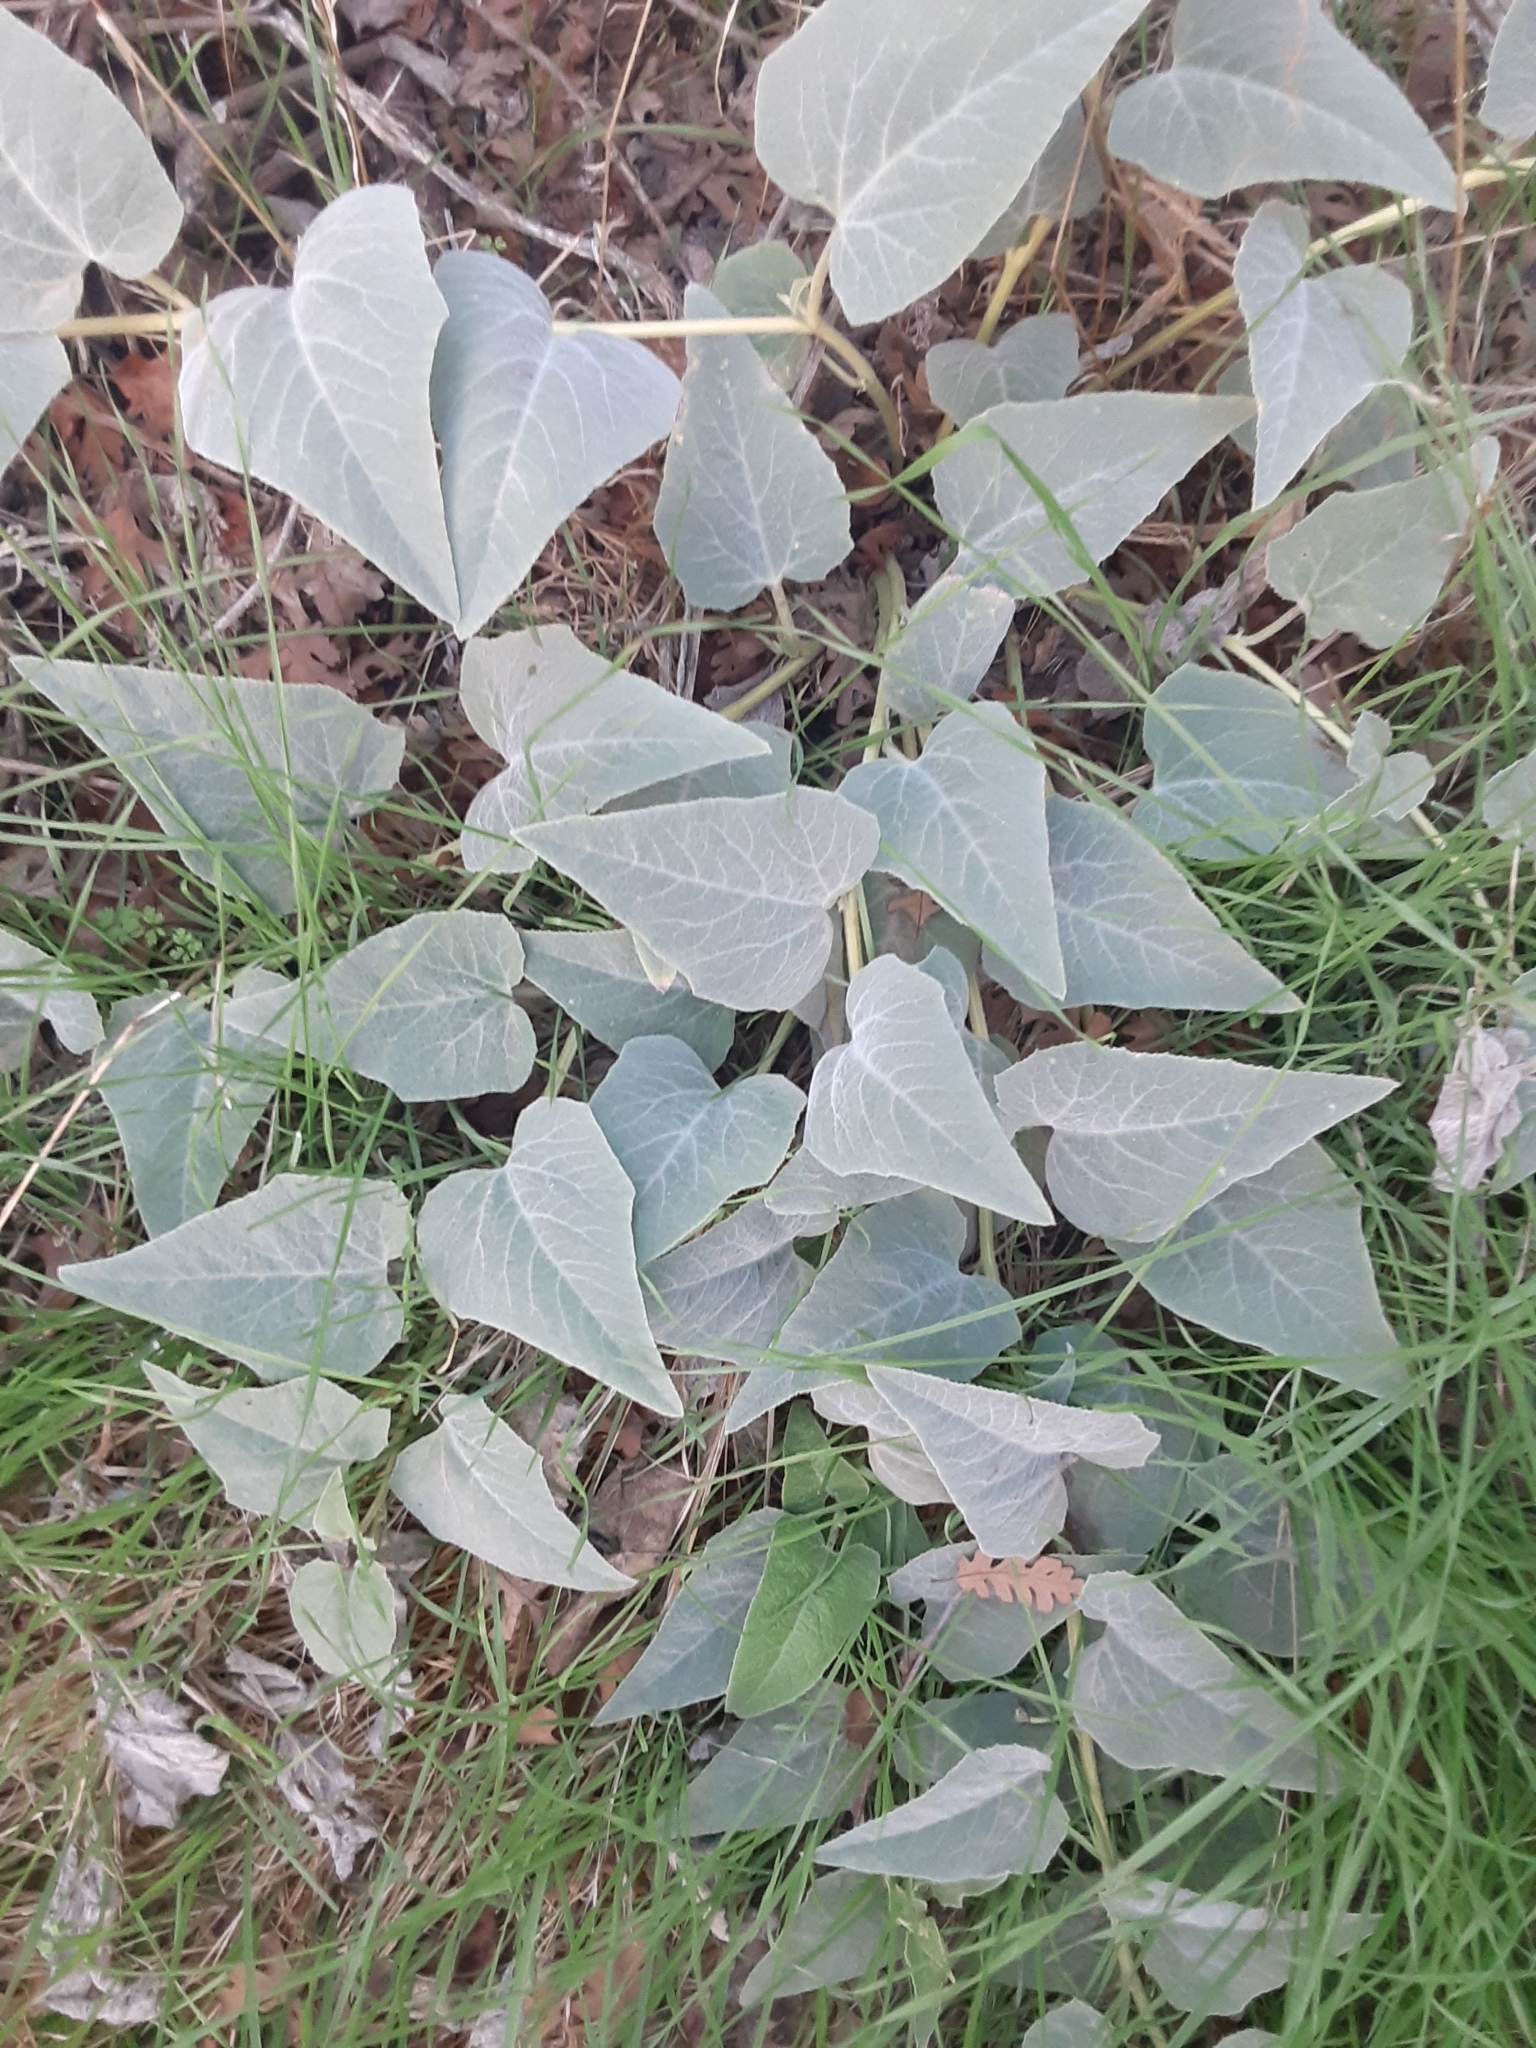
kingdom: Plantae
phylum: Tracheophyta
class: Magnoliopsida
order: Cucurbitales
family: Cucurbitaceae
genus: Cucurbita
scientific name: Cucurbita foetidissima
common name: Buffalo gourd
